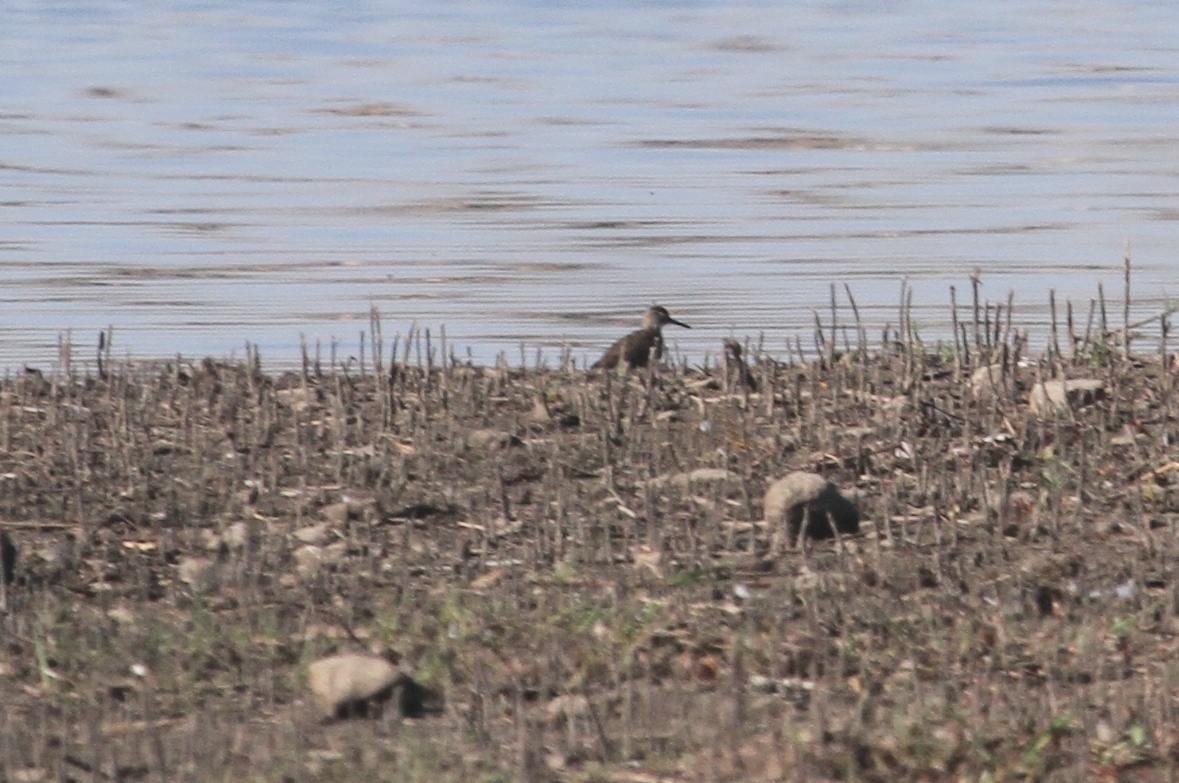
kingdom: Animalia
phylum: Chordata
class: Aves
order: Charadriiformes
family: Scolopacidae
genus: Tringa
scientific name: Tringa glareola
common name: Wood sandpiper
